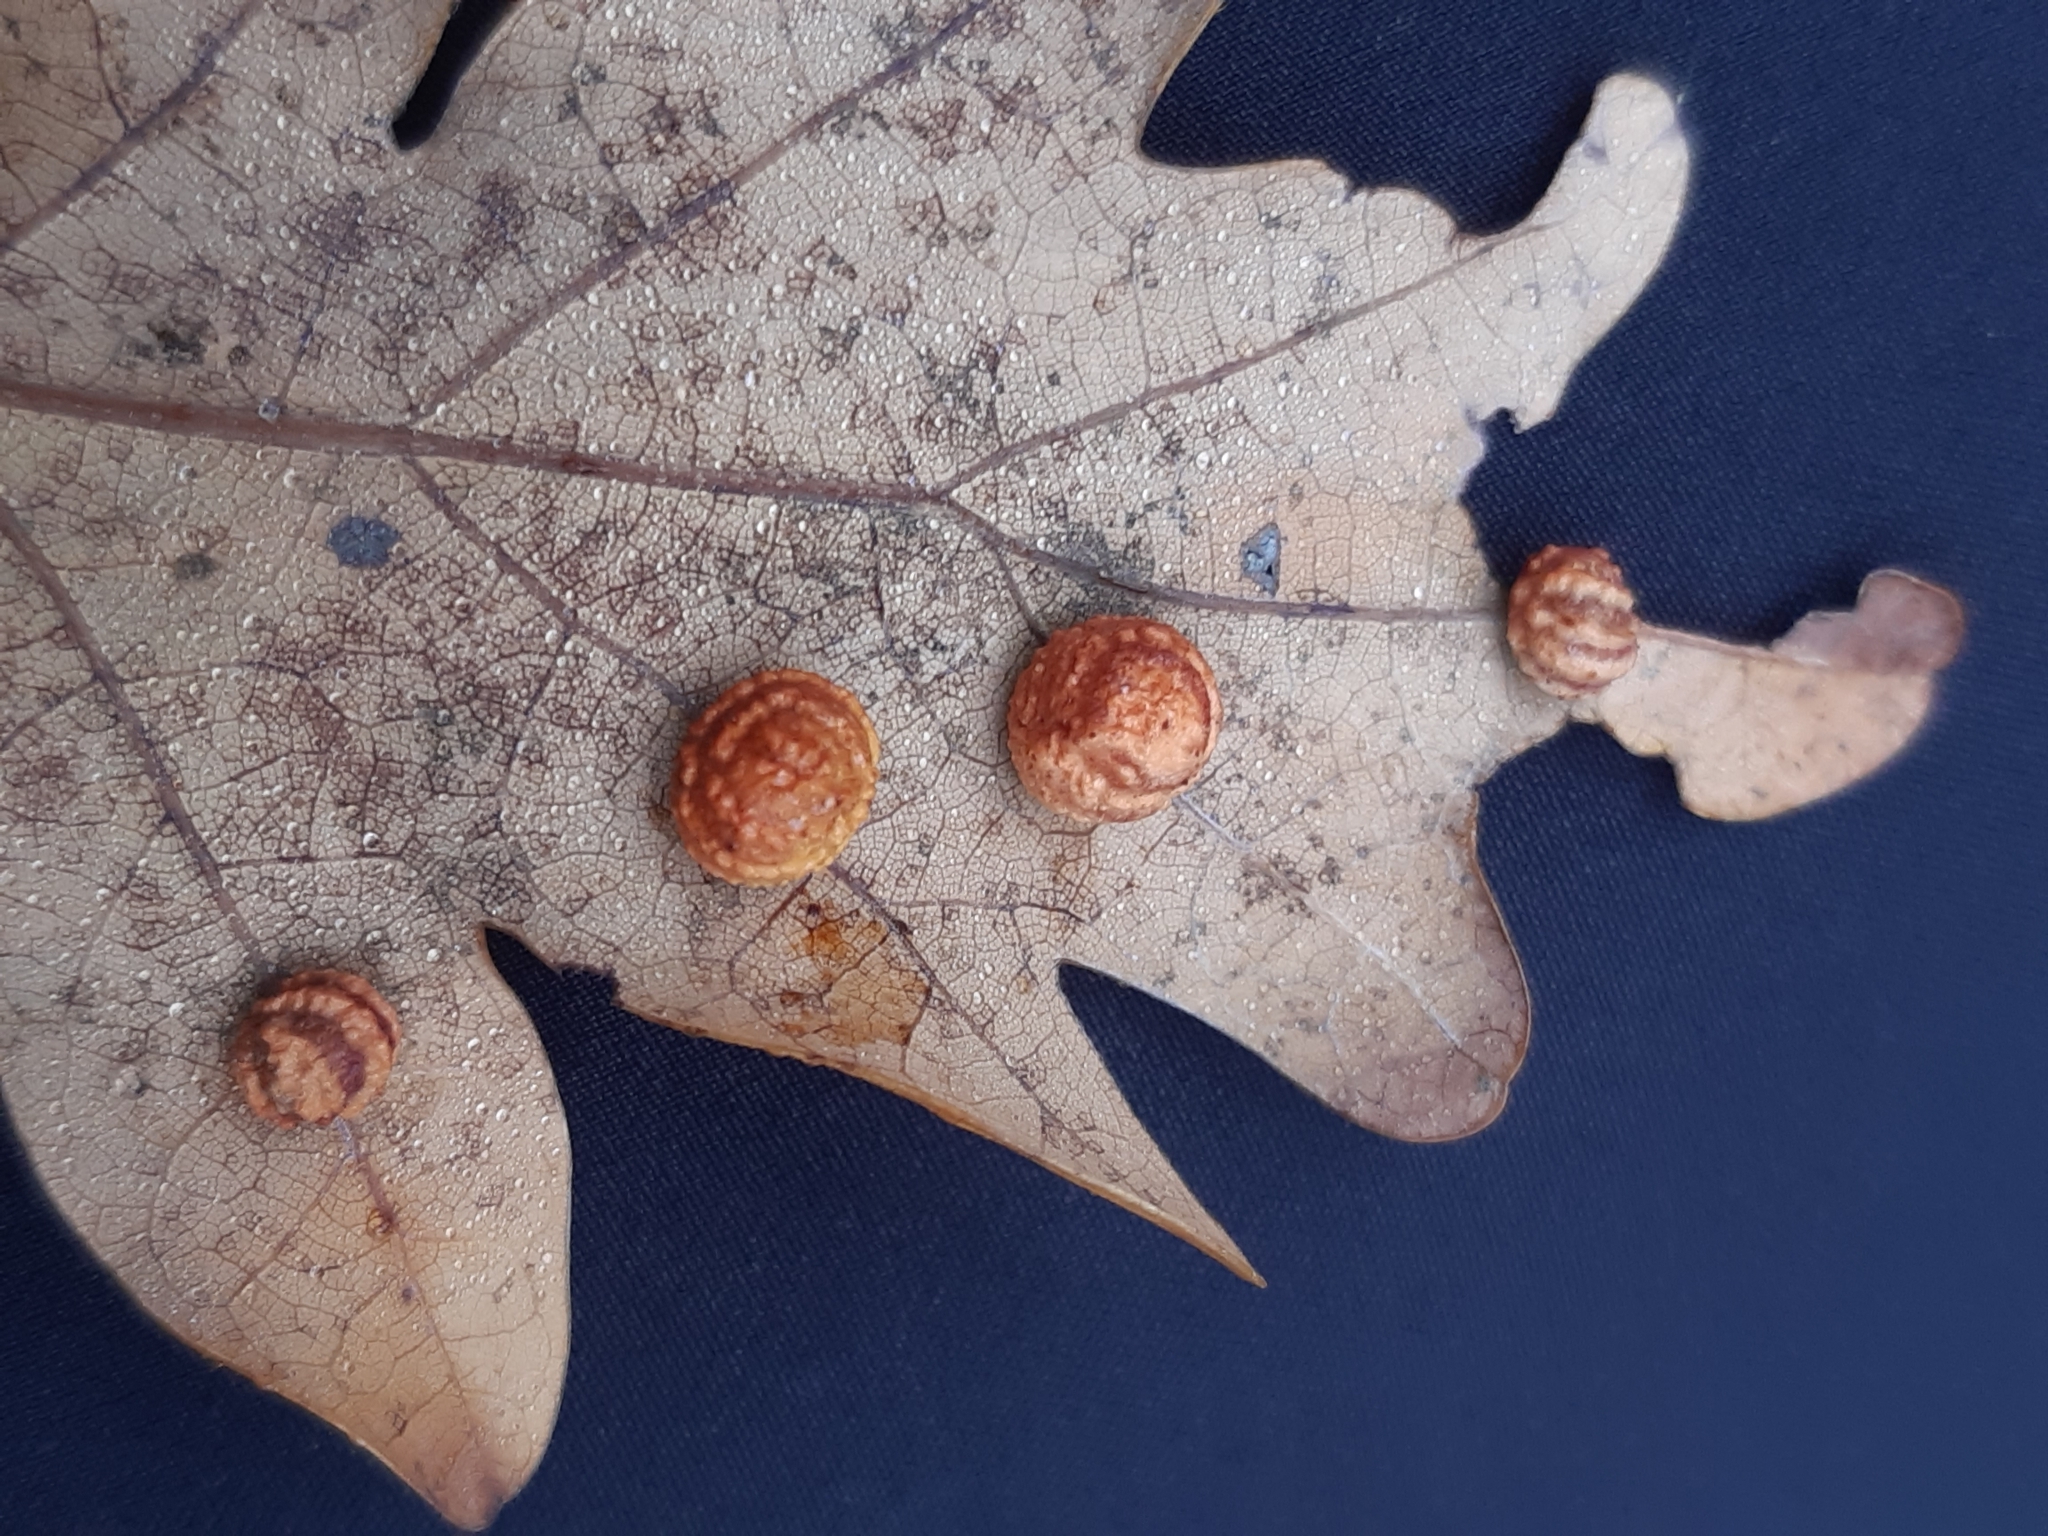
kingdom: Animalia
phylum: Arthropoda
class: Insecta
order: Hymenoptera
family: Cynipidae
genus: Cynips
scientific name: Cynips longiventris
